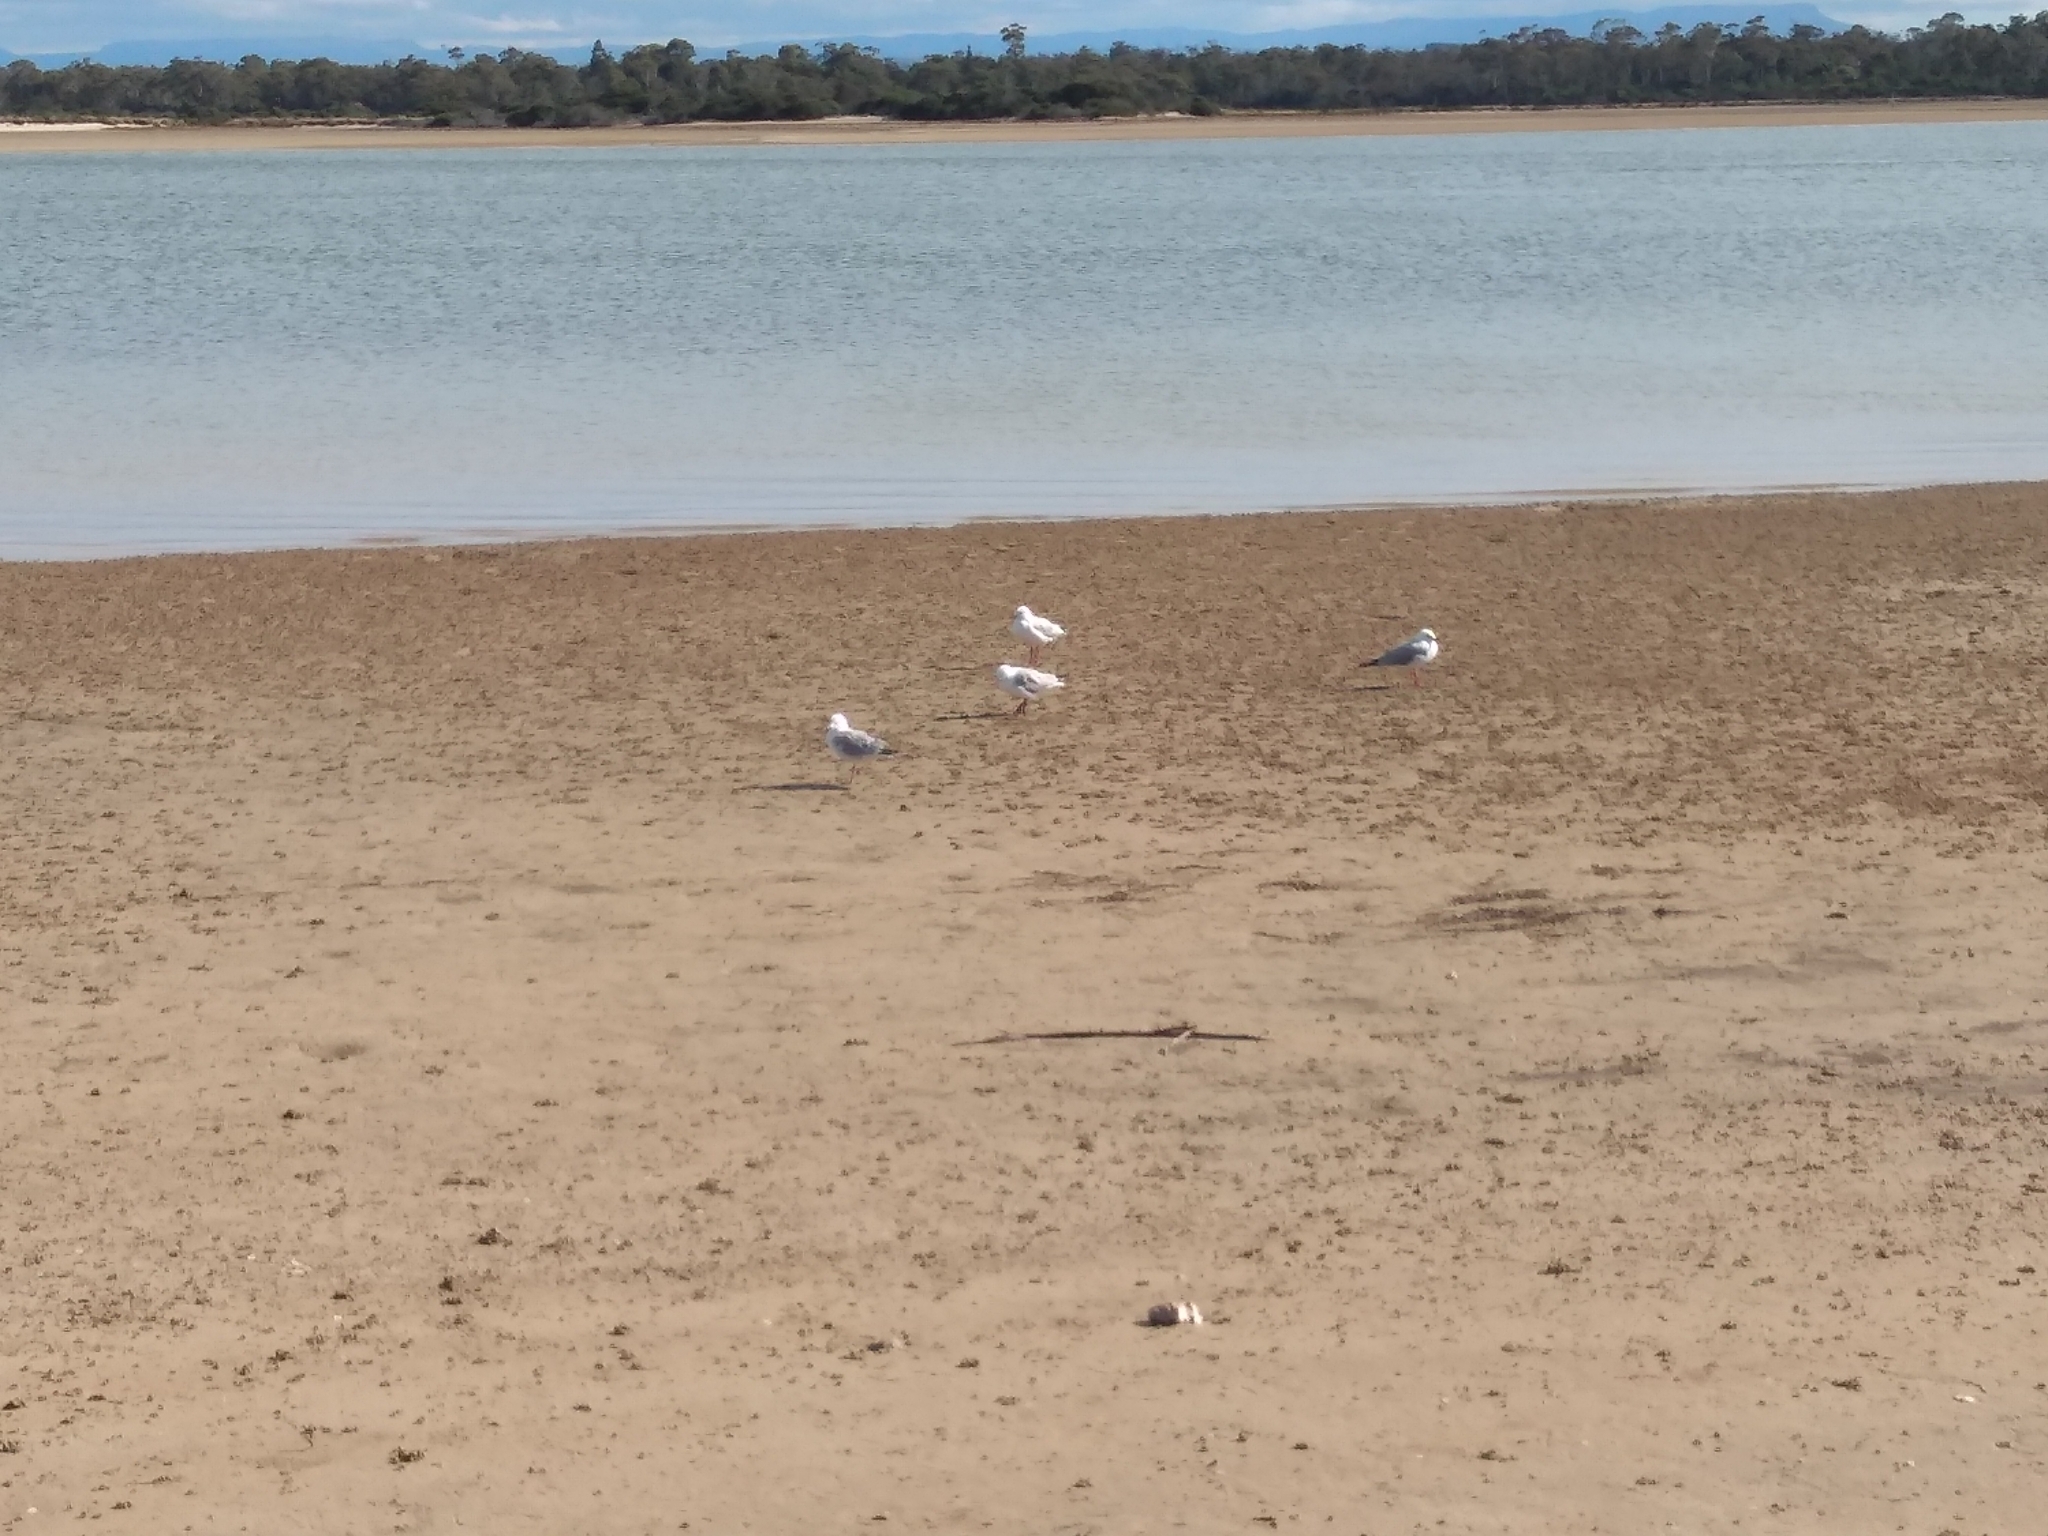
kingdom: Animalia
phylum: Chordata
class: Aves
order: Charadriiformes
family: Laridae
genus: Chroicocephalus
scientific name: Chroicocephalus novaehollandiae
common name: Silver gull
